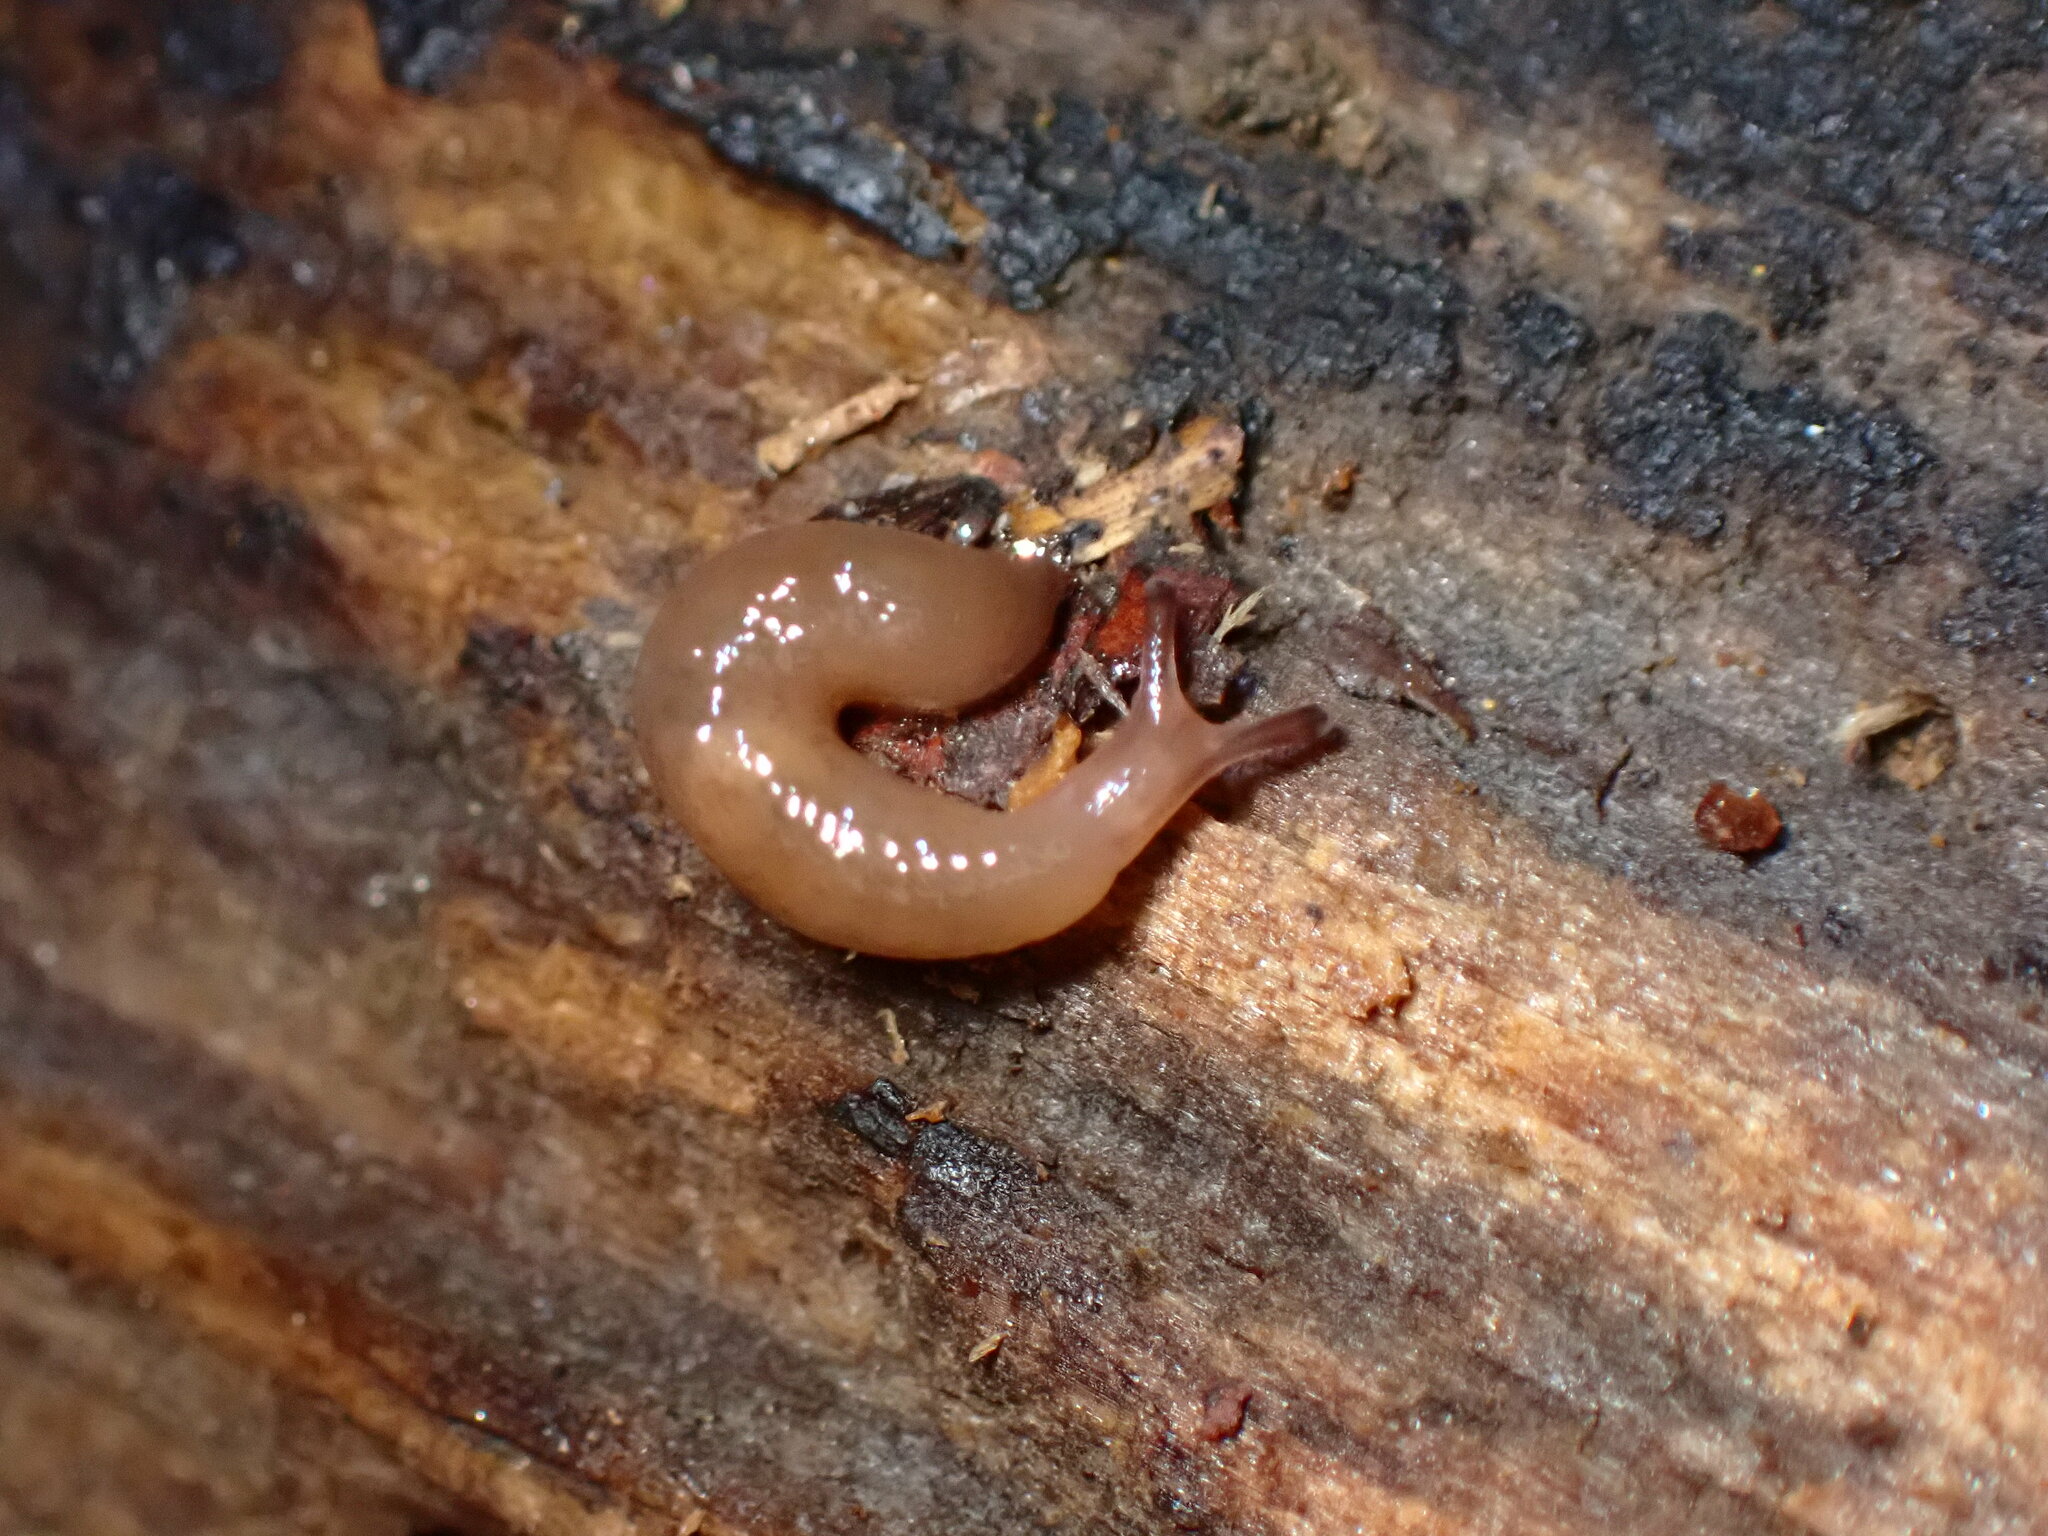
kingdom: Animalia
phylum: Mollusca
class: Gastropoda
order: Stylommatophora
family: Agriolimacidae
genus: Deroceras
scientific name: Deroceras laeve
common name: Marsh slug
